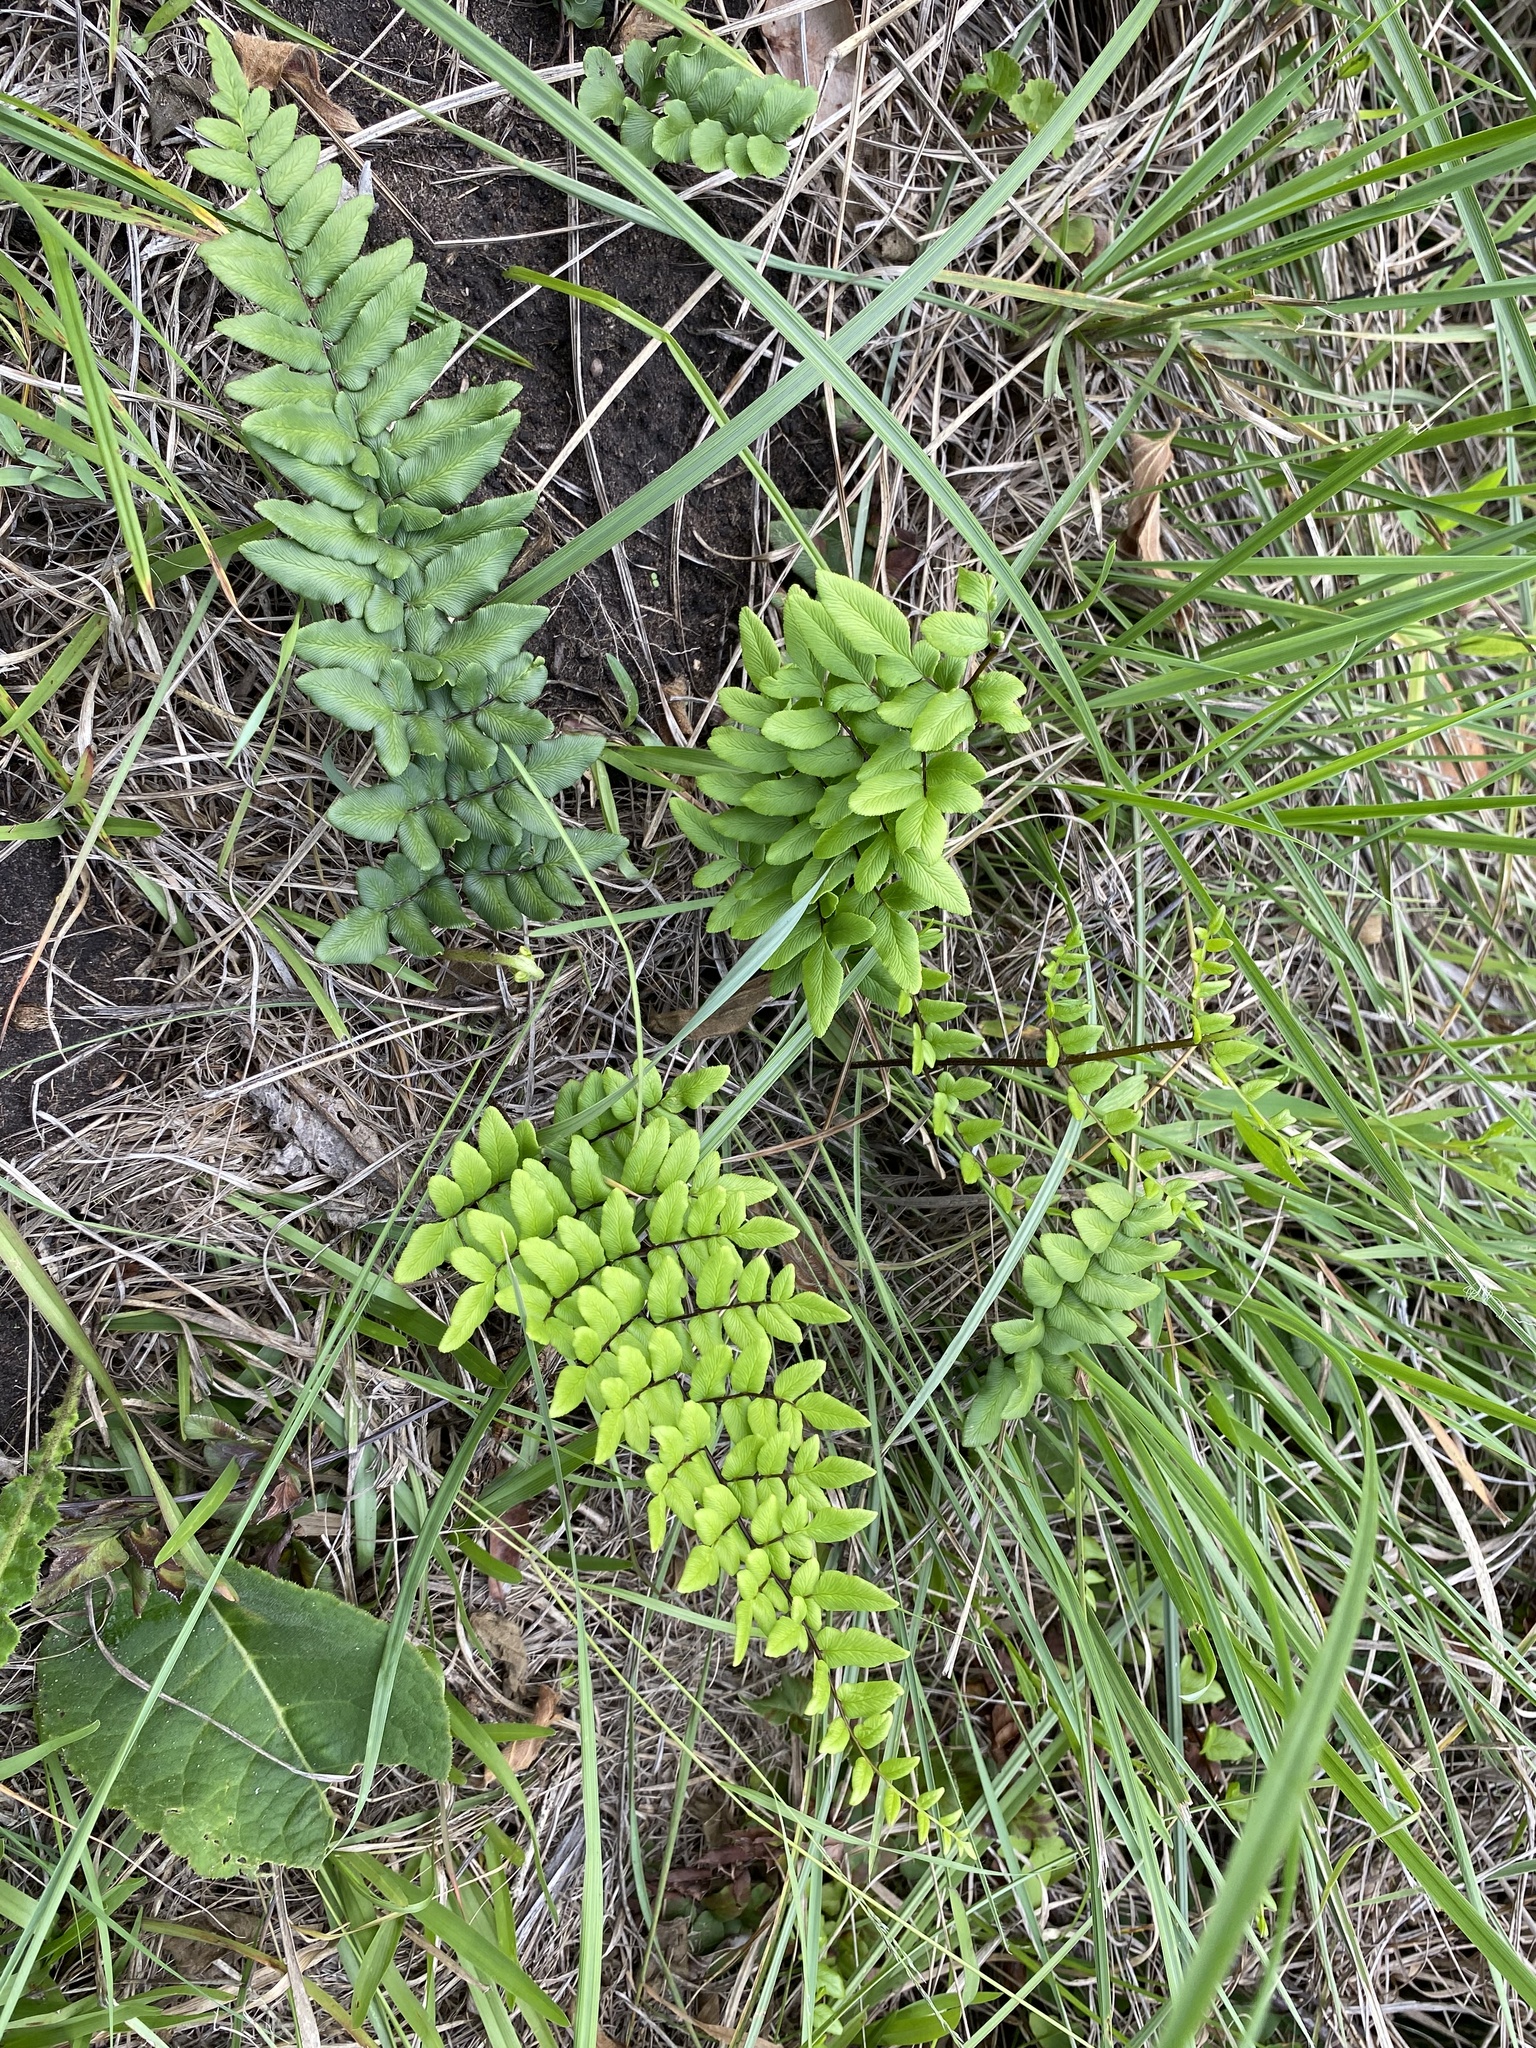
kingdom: Plantae
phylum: Tracheophyta
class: Polypodiopsida
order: Polypodiales
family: Pteridaceae
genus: Cheilanthes
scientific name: Cheilanthes viridis
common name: Green cliffbrake
